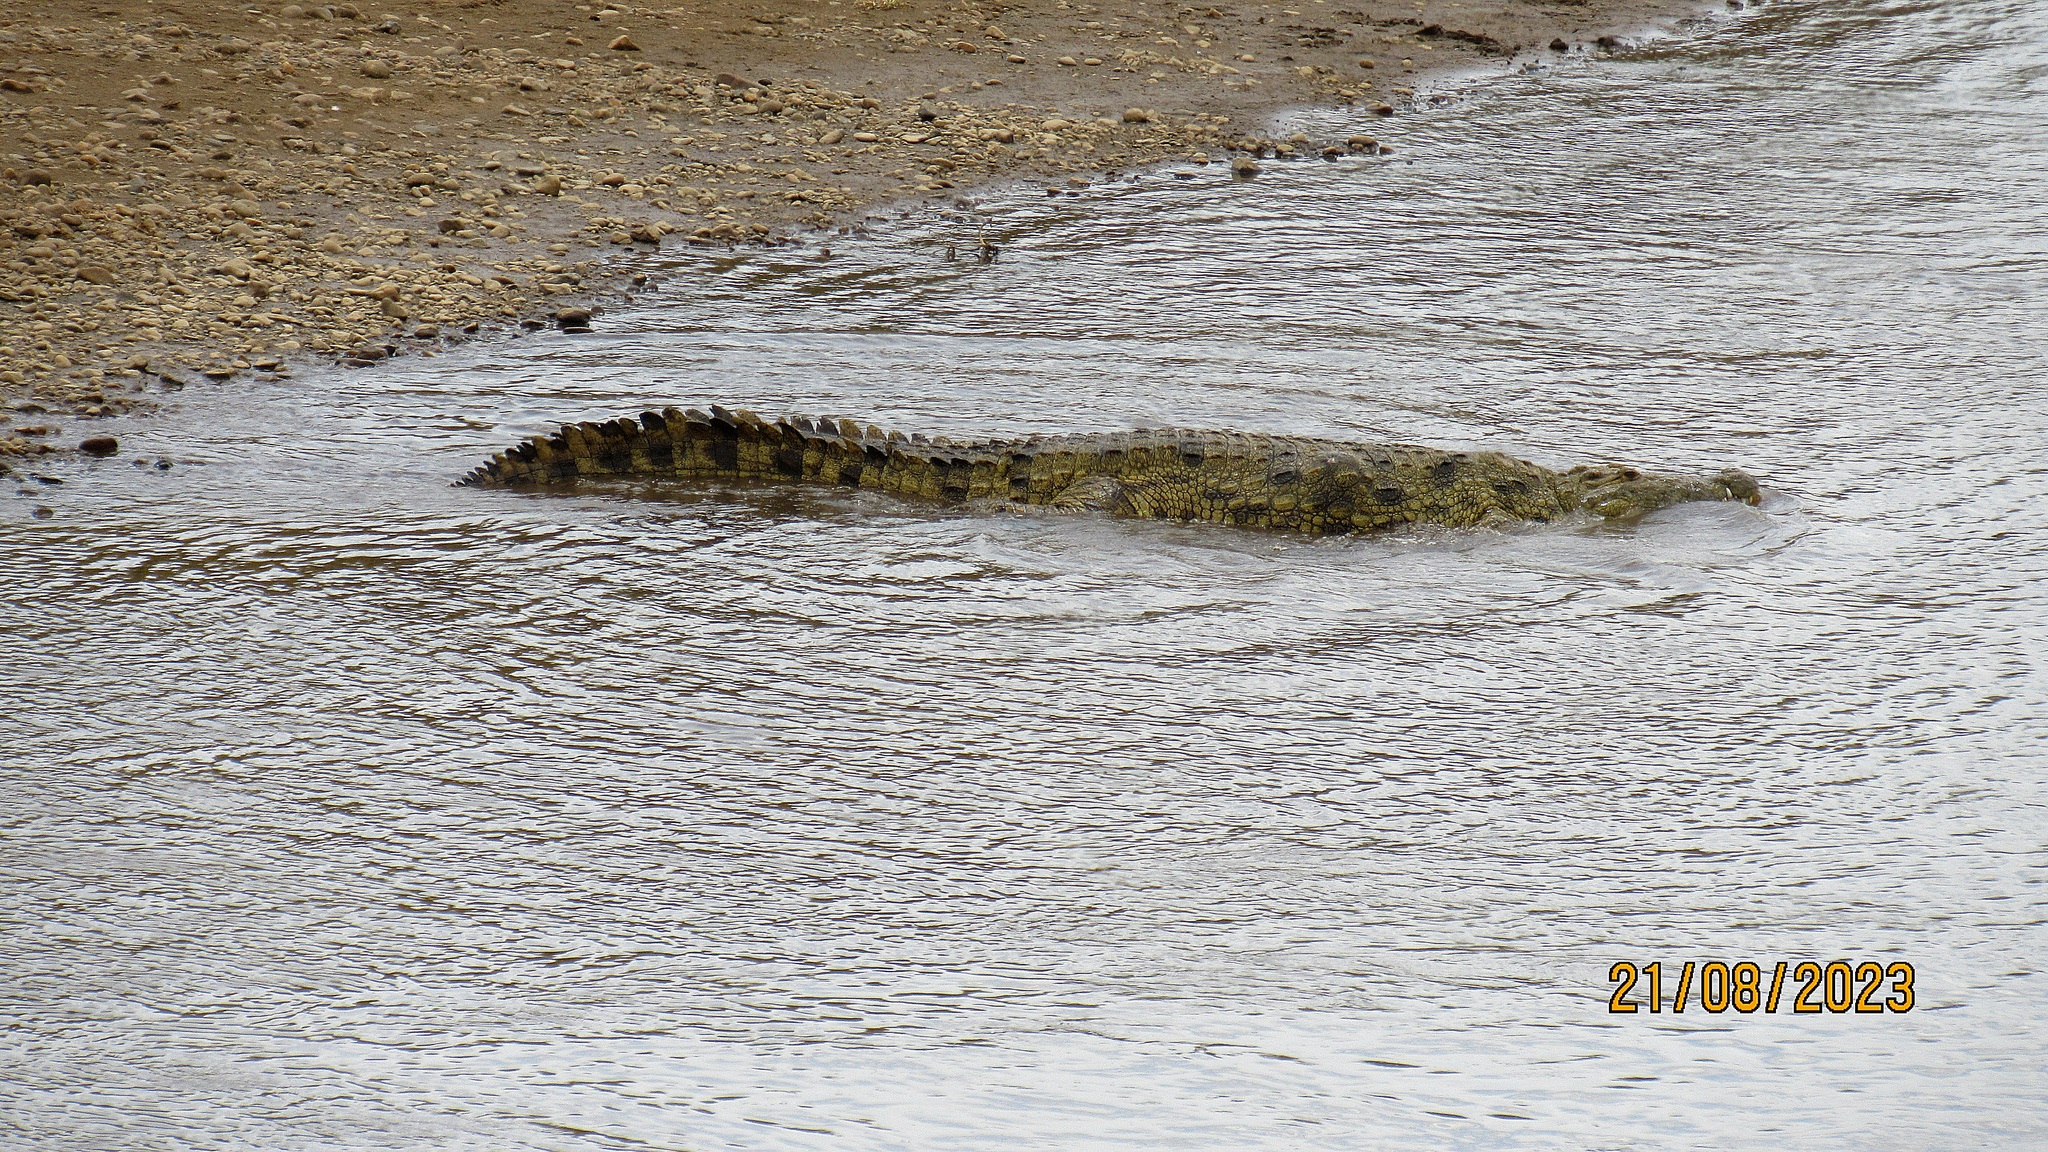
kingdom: Animalia
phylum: Chordata
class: Crocodylia
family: Crocodylidae
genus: Crocodylus
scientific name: Crocodylus niloticus
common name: Nile crocodile
